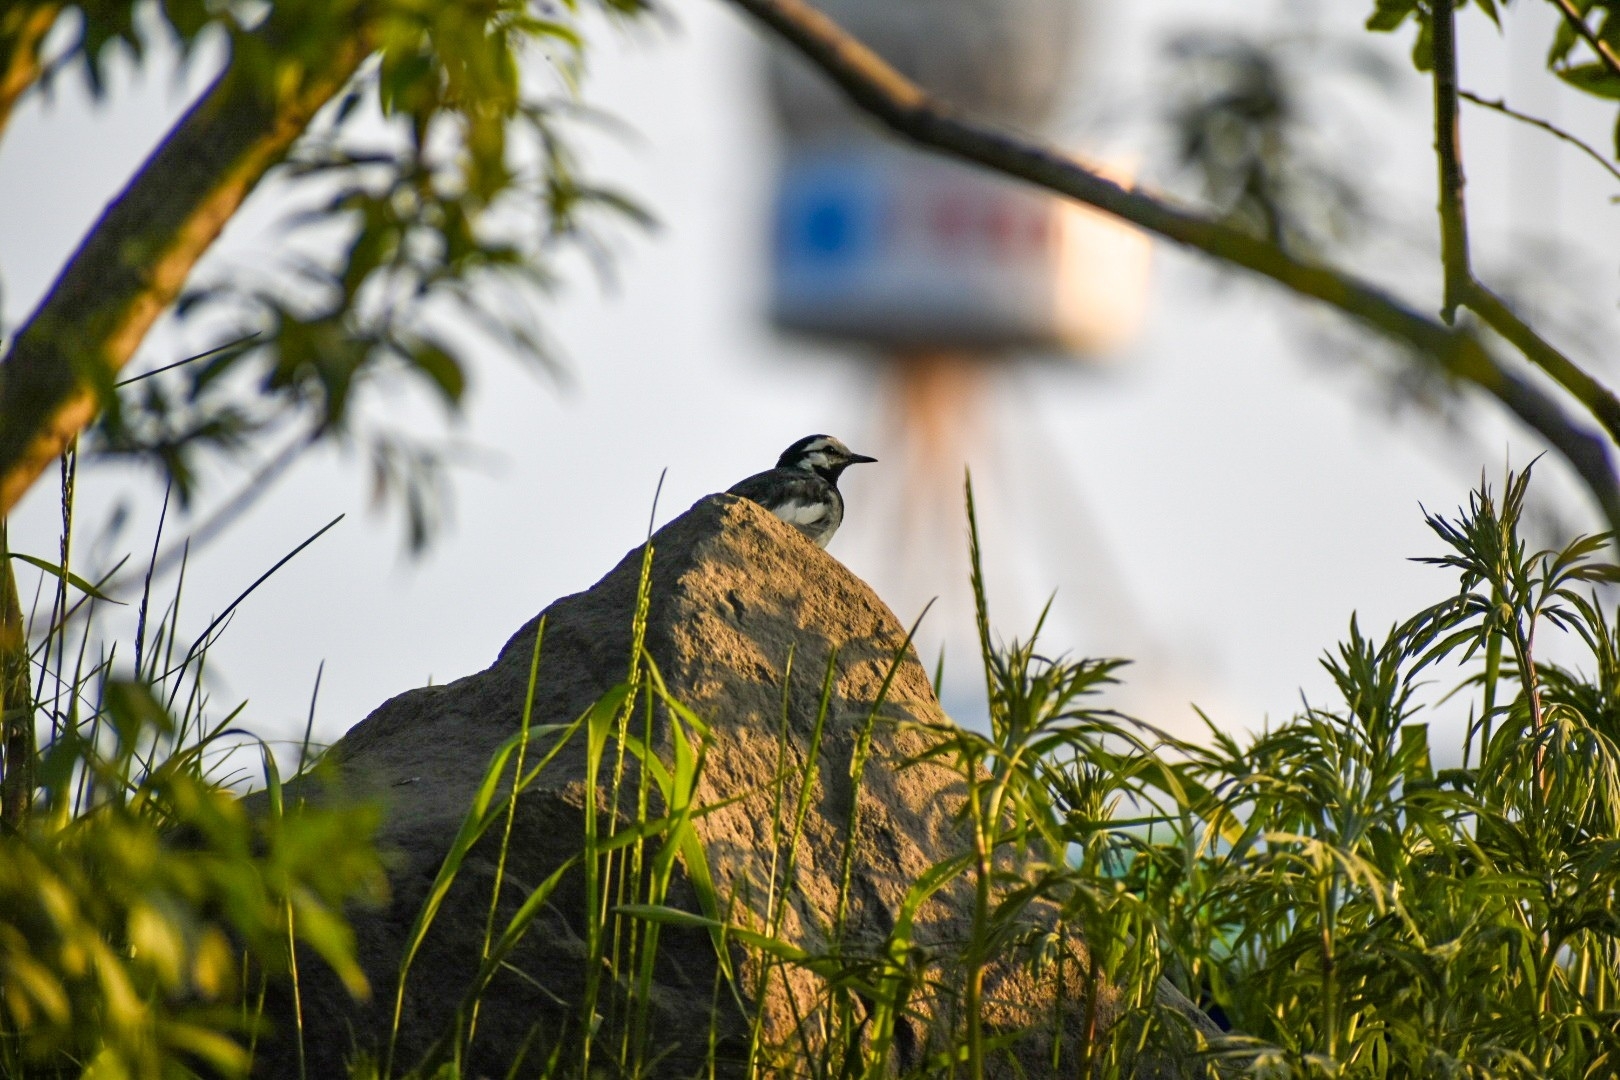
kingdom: Animalia
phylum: Chordata
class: Aves
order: Passeriformes
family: Motacillidae
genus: Motacilla
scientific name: Motacilla alba
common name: White wagtail
